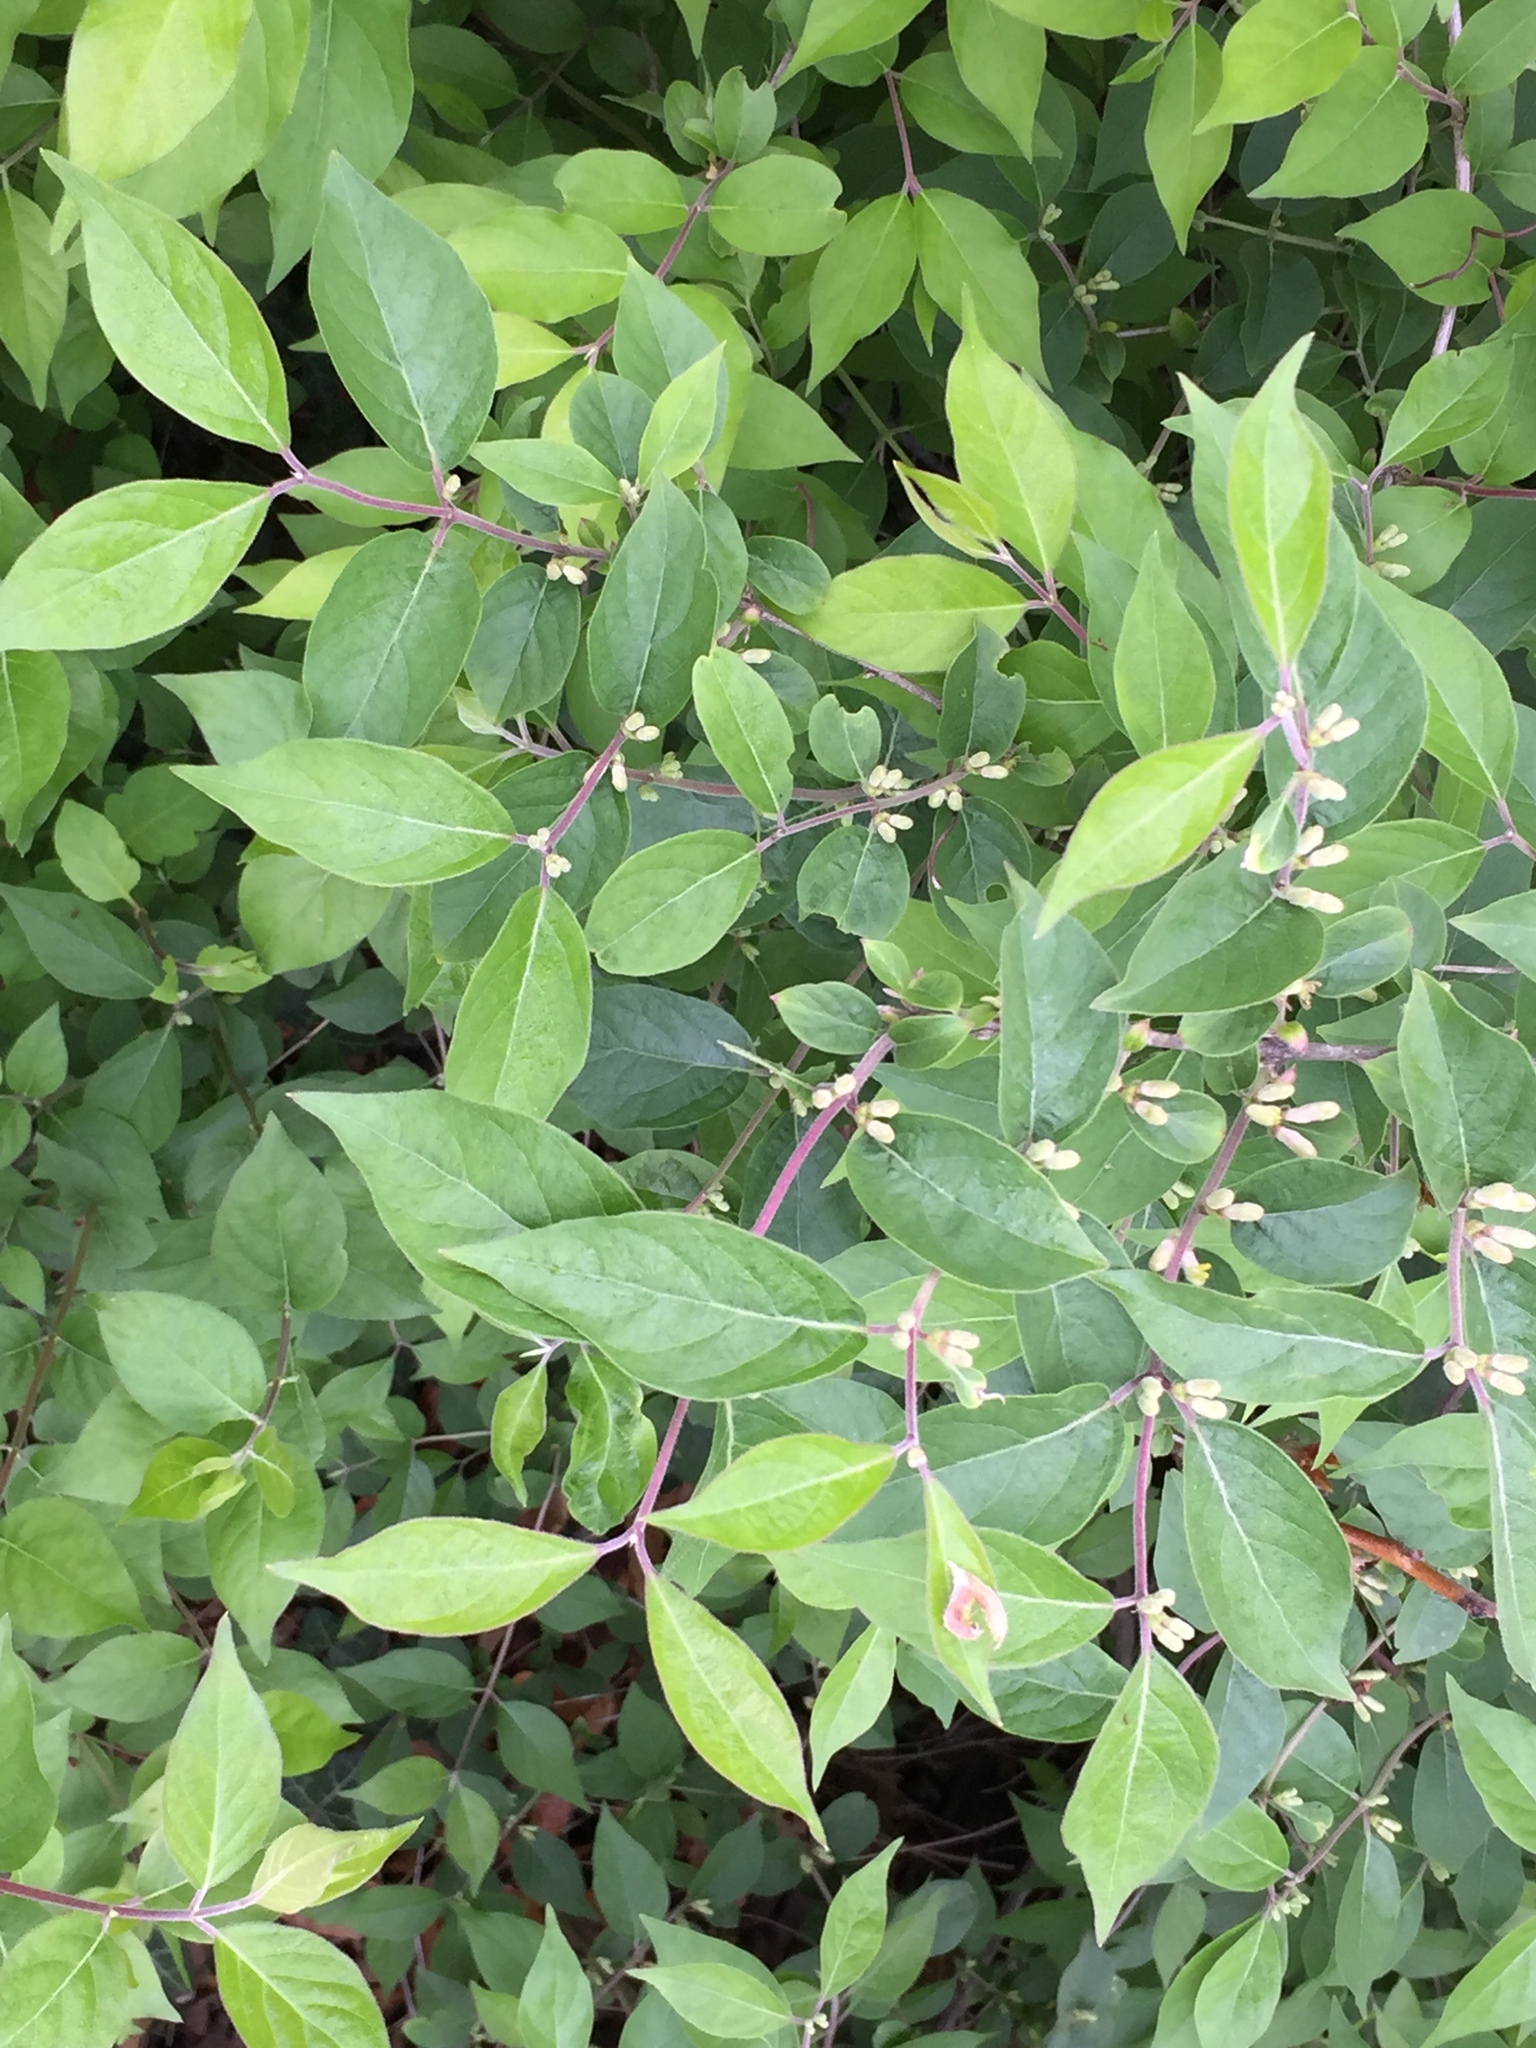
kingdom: Plantae
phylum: Tracheophyta
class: Magnoliopsida
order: Dipsacales
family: Caprifoliaceae
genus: Lonicera
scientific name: Lonicera maackii
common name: Amur honeysuckle
